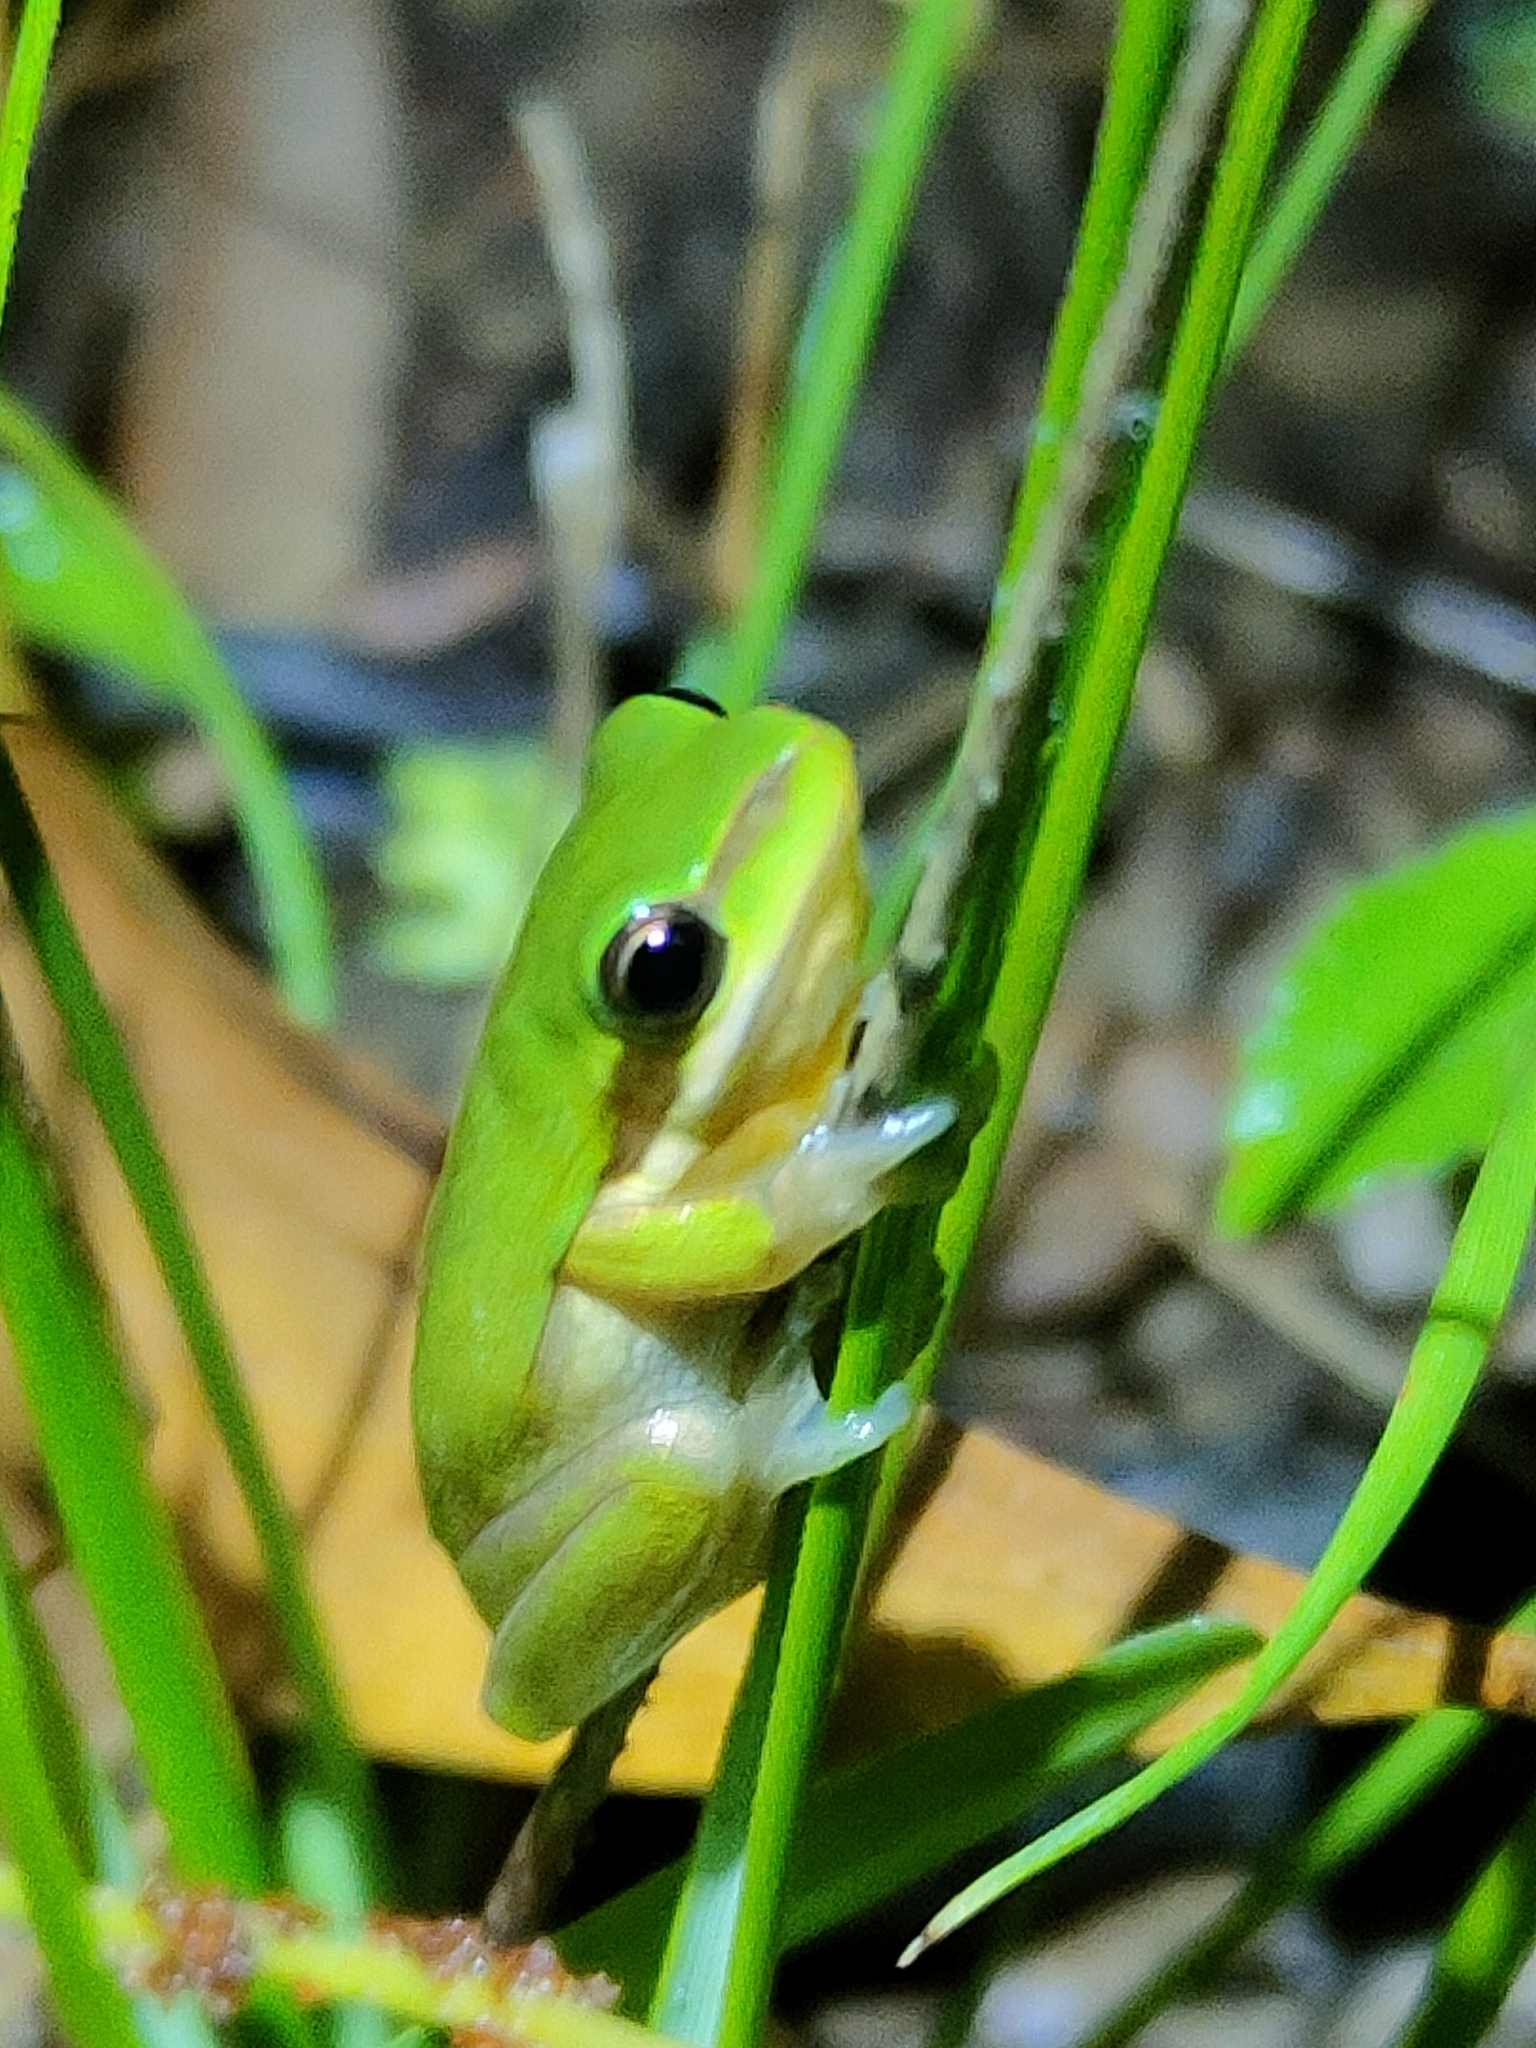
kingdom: Animalia
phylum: Chordata
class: Amphibia
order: Anura
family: Pelodryadidae
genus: Litoria
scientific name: Litoria fallax
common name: Eastern dwarf treefrog
